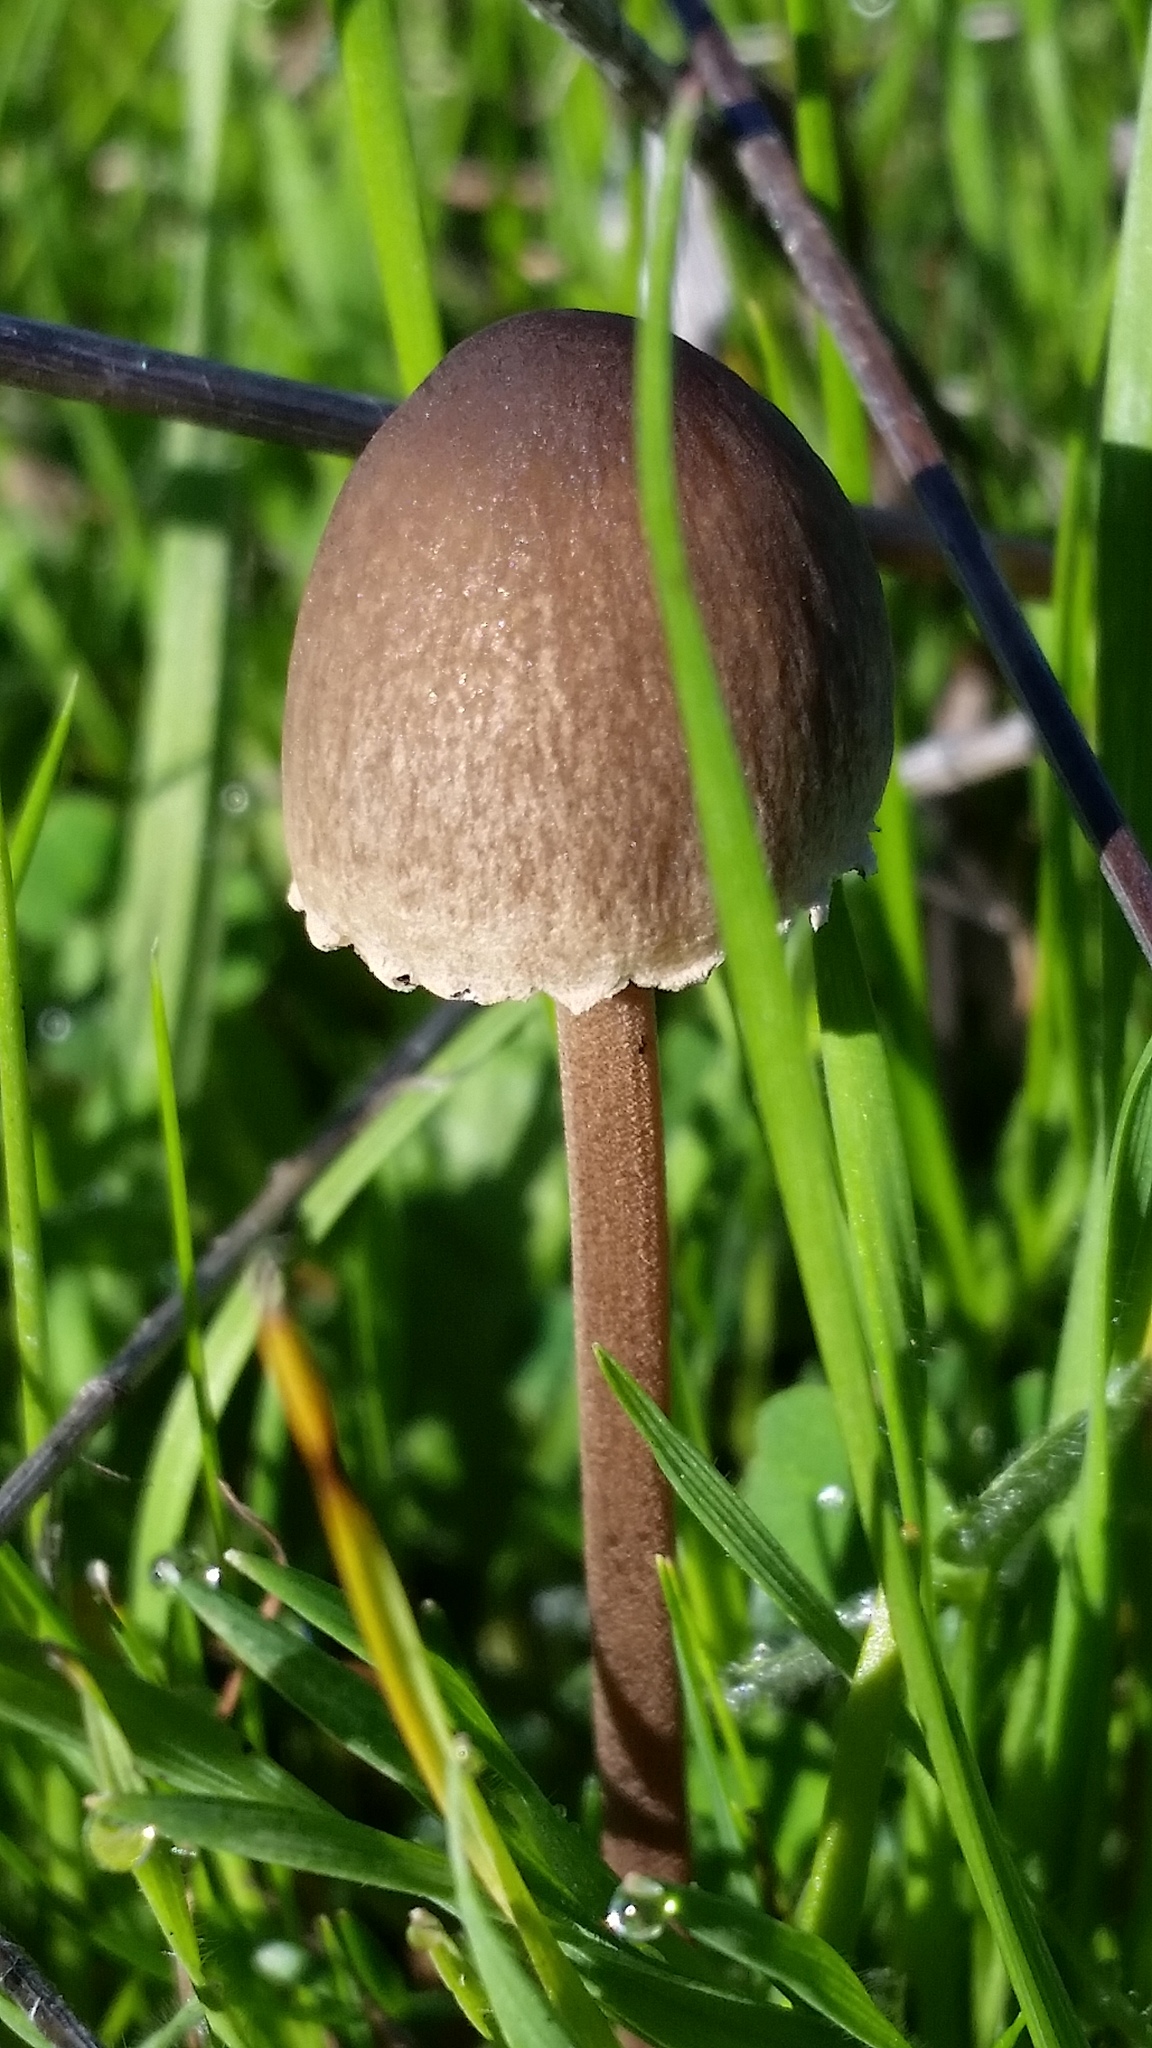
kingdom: Fungi
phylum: Basidiomycota
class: Agaricomycetes
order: Agaricales
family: Bolbitiaceae
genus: Panaeolus
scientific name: Panaeolus papilionaceus
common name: Petticoat mottlegill
